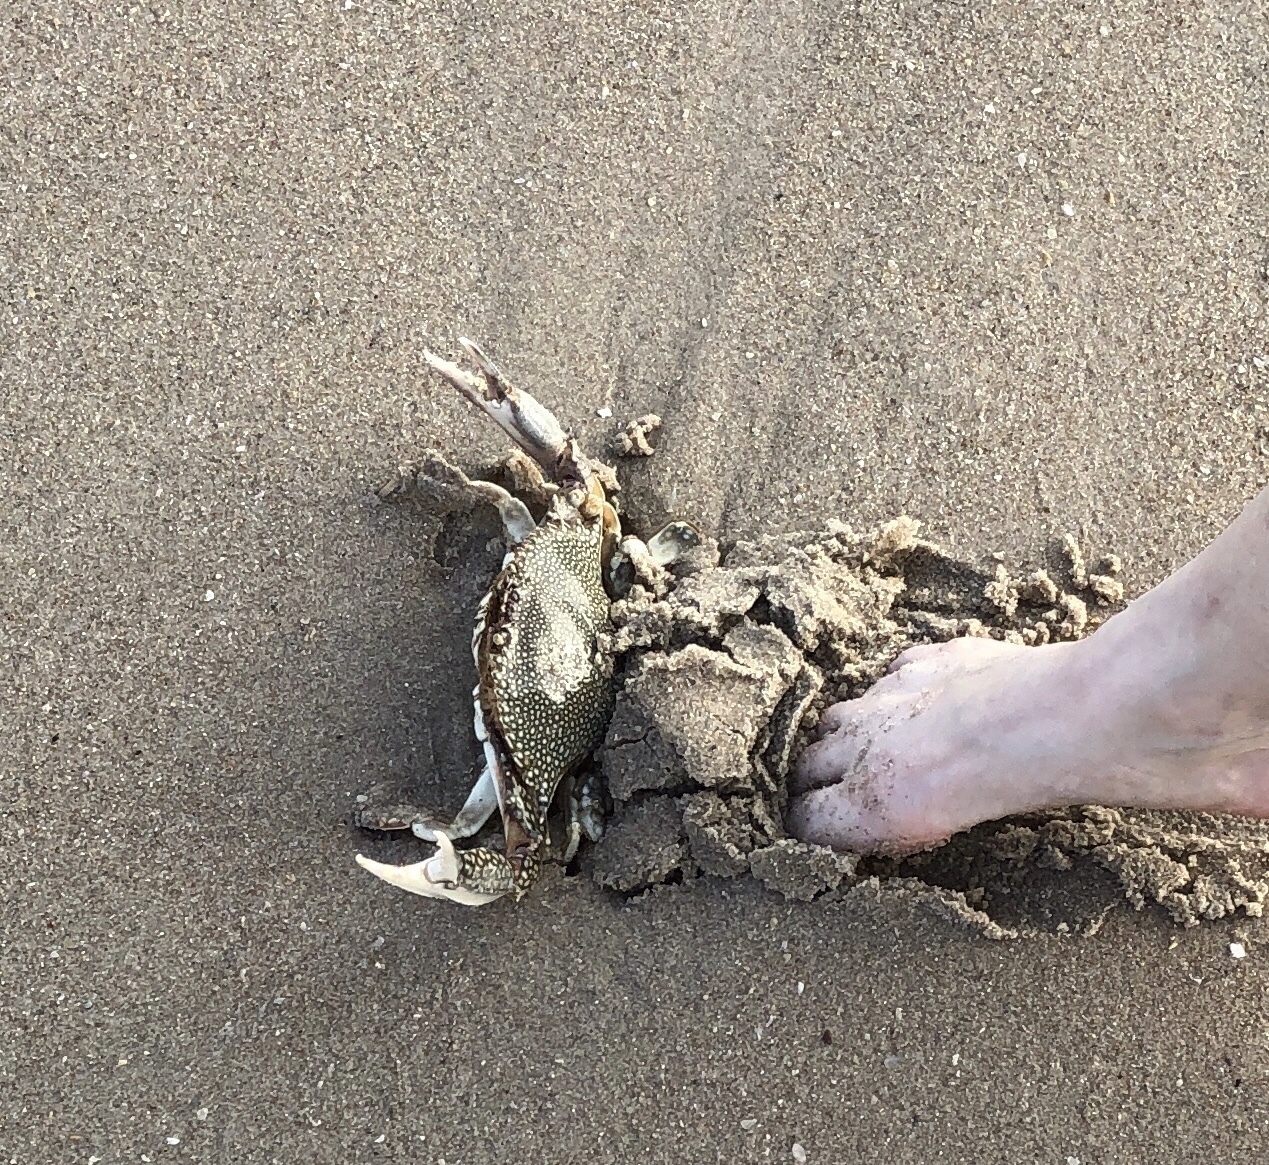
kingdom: Animalia
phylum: Arthropoda
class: Malacostraca
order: Decapoda
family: Portunidae
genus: Arenaeus
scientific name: Arenaeus cribrarius
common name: Speckled crab
